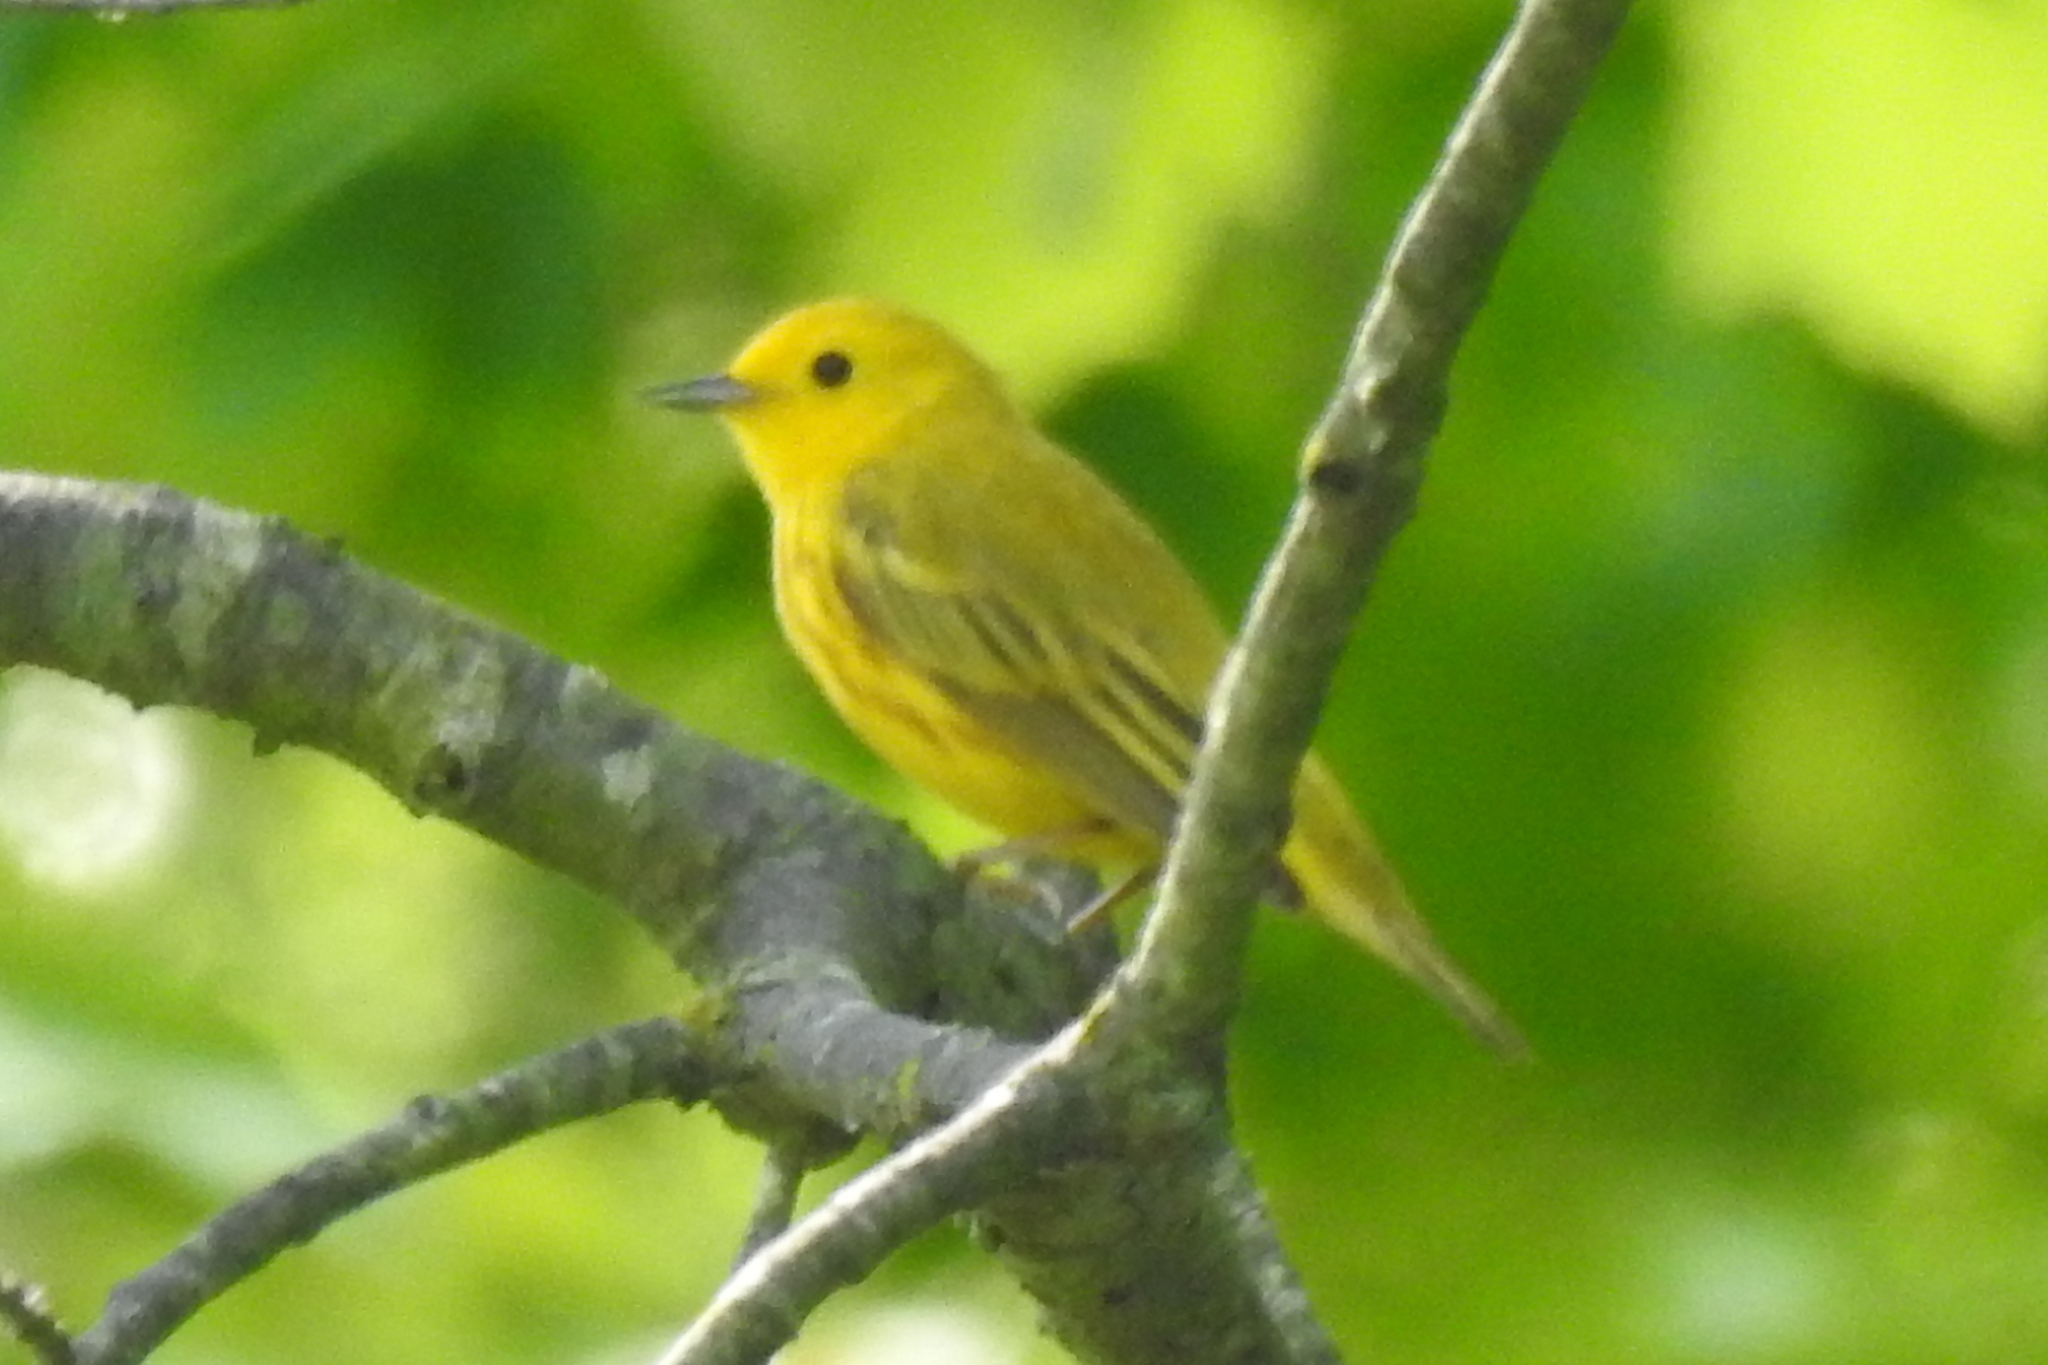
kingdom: Animalia
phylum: Chordata
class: Aves
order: Passeriformes
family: Parulidae
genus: Setophaga
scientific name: Setophaga petechia
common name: Yellow warbler
